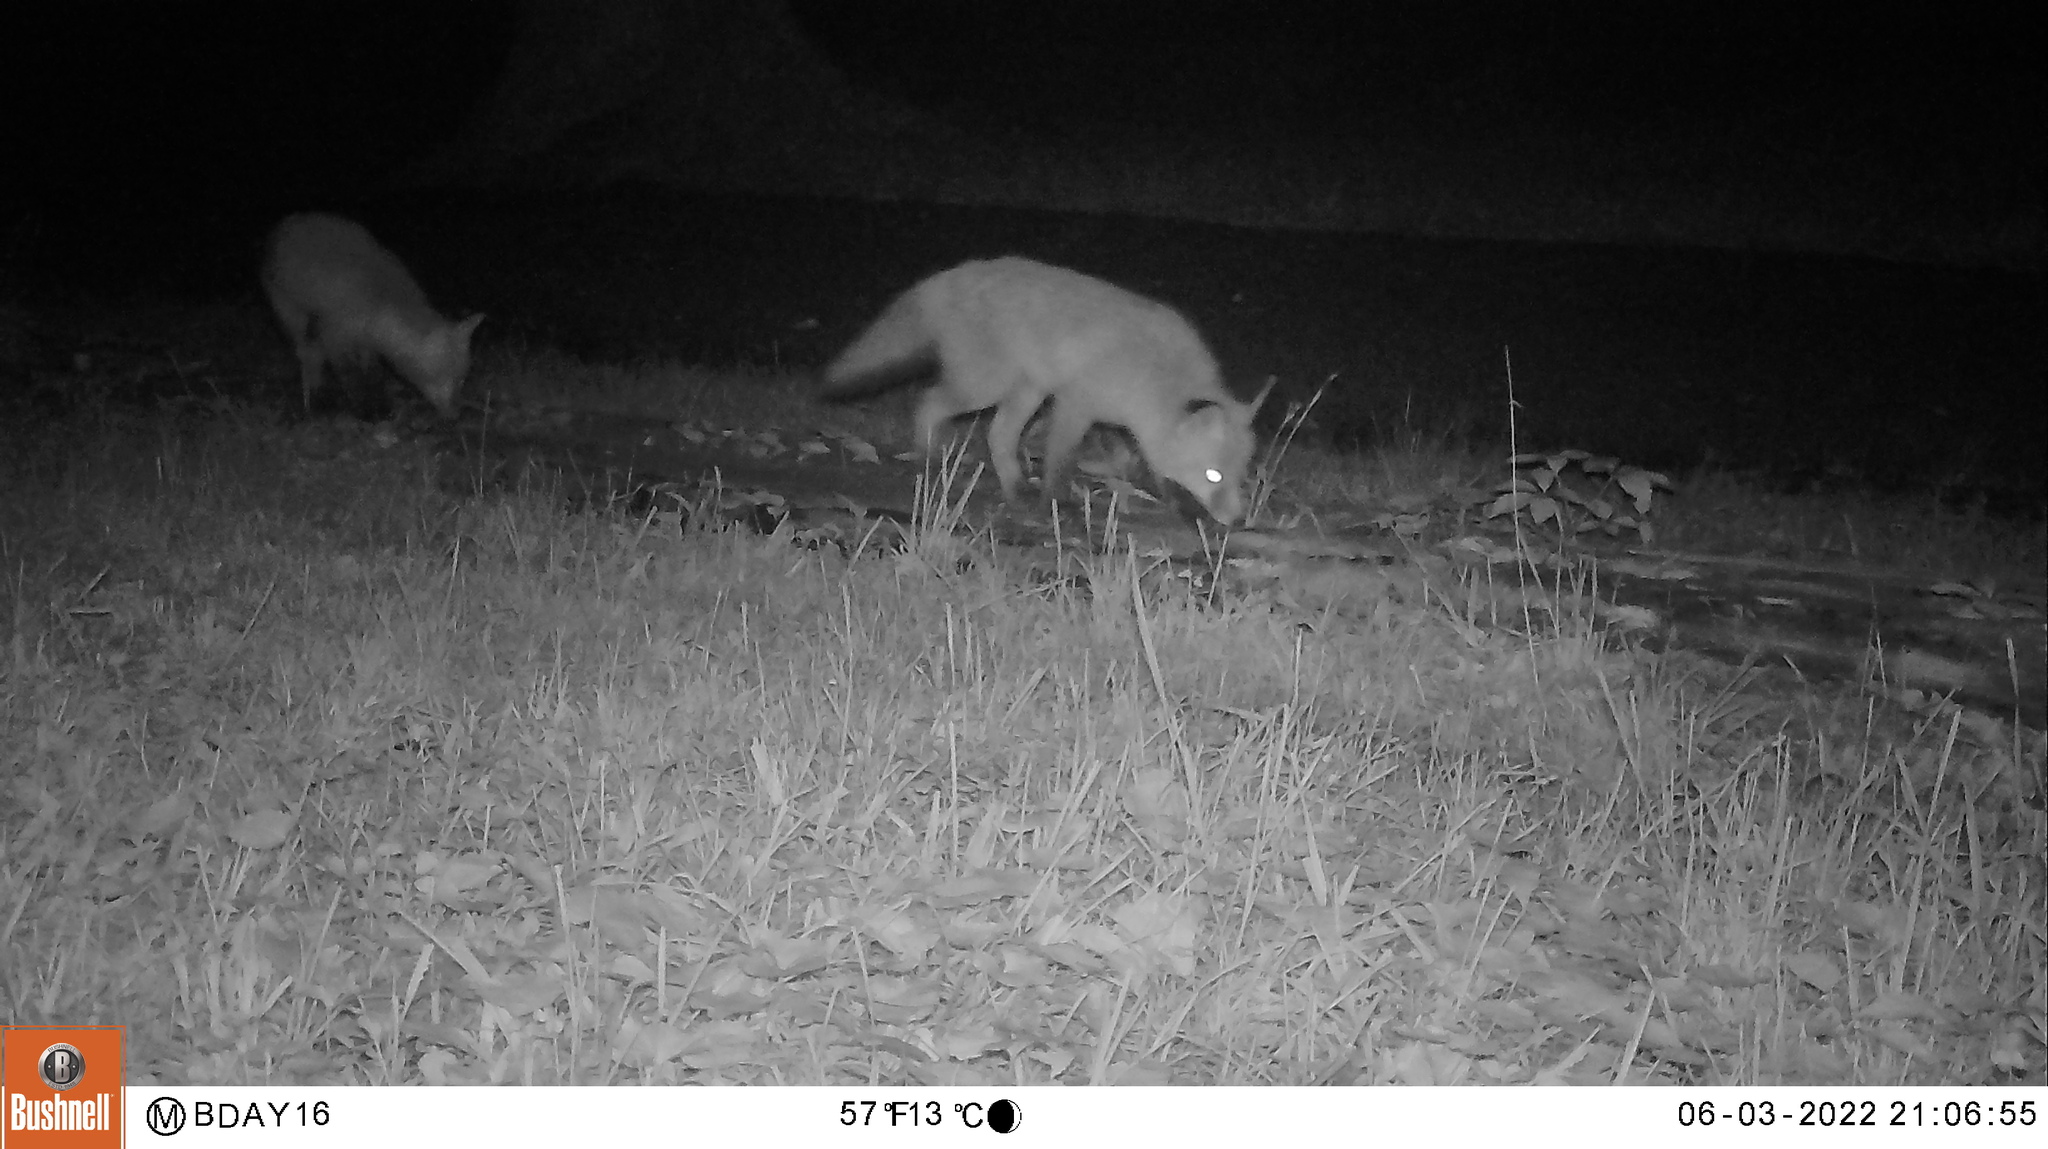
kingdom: Animalia
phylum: Chordata
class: Mammalia
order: Carnivora
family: Canidae
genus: Vulpes
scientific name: Vulpes vulpes
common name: Red fox
